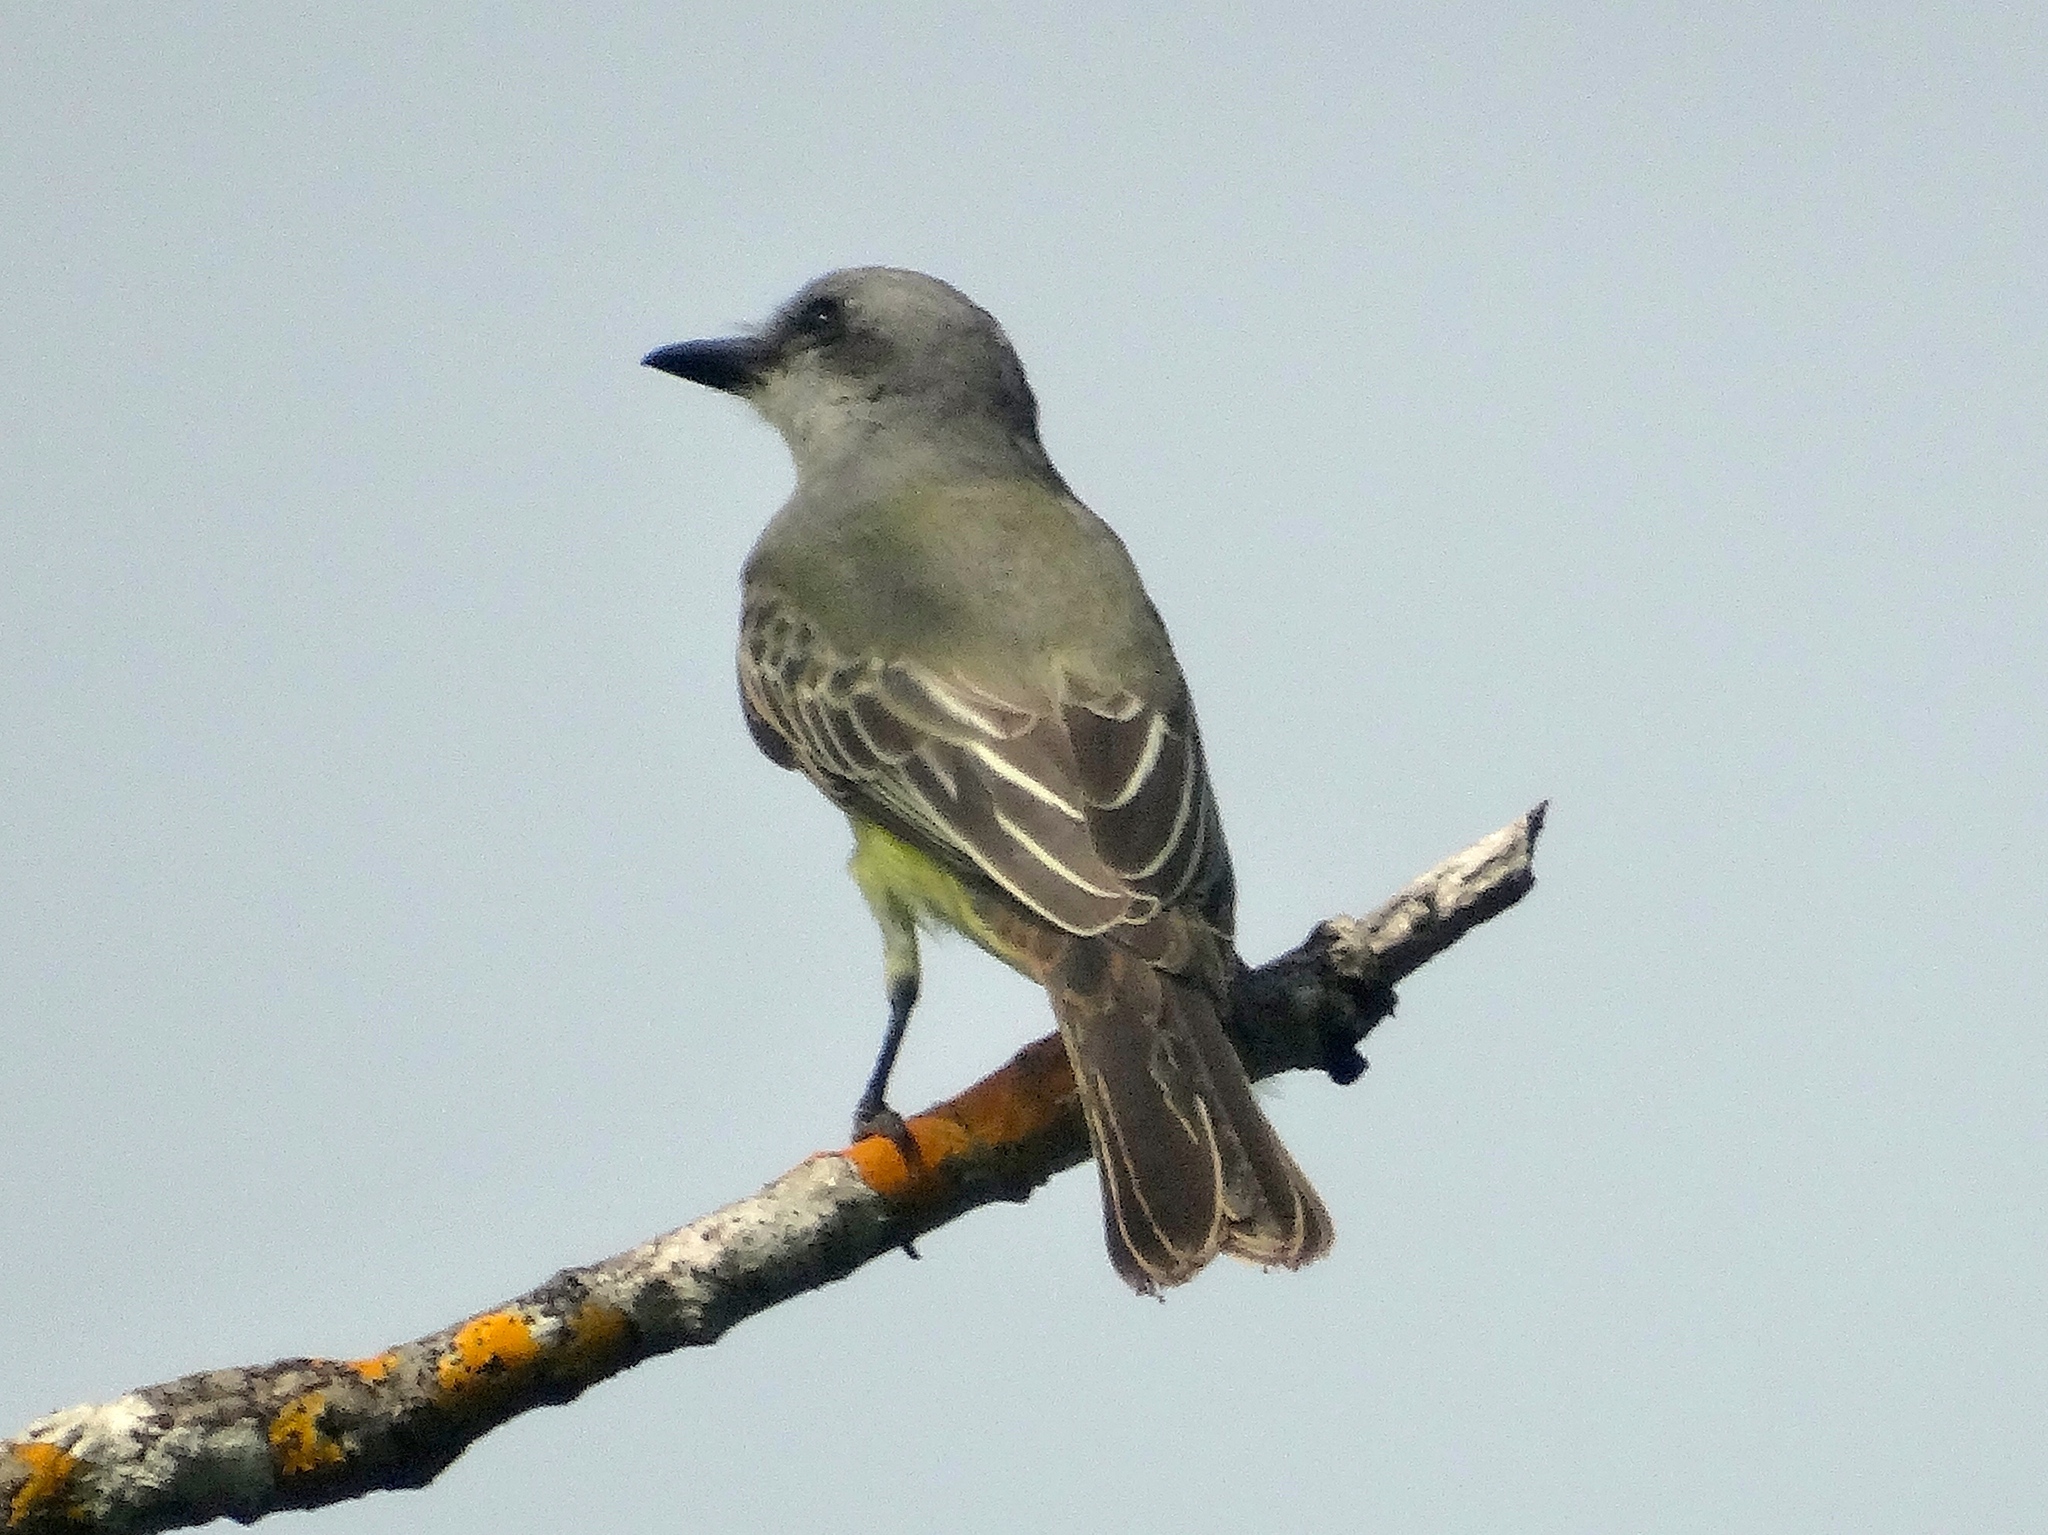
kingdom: Animalia
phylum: Chordata
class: Aves
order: Passeriformes
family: Tyrannidae
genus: Tyrannus
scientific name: Tyrannus melancholicus
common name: Tropical kingbird
